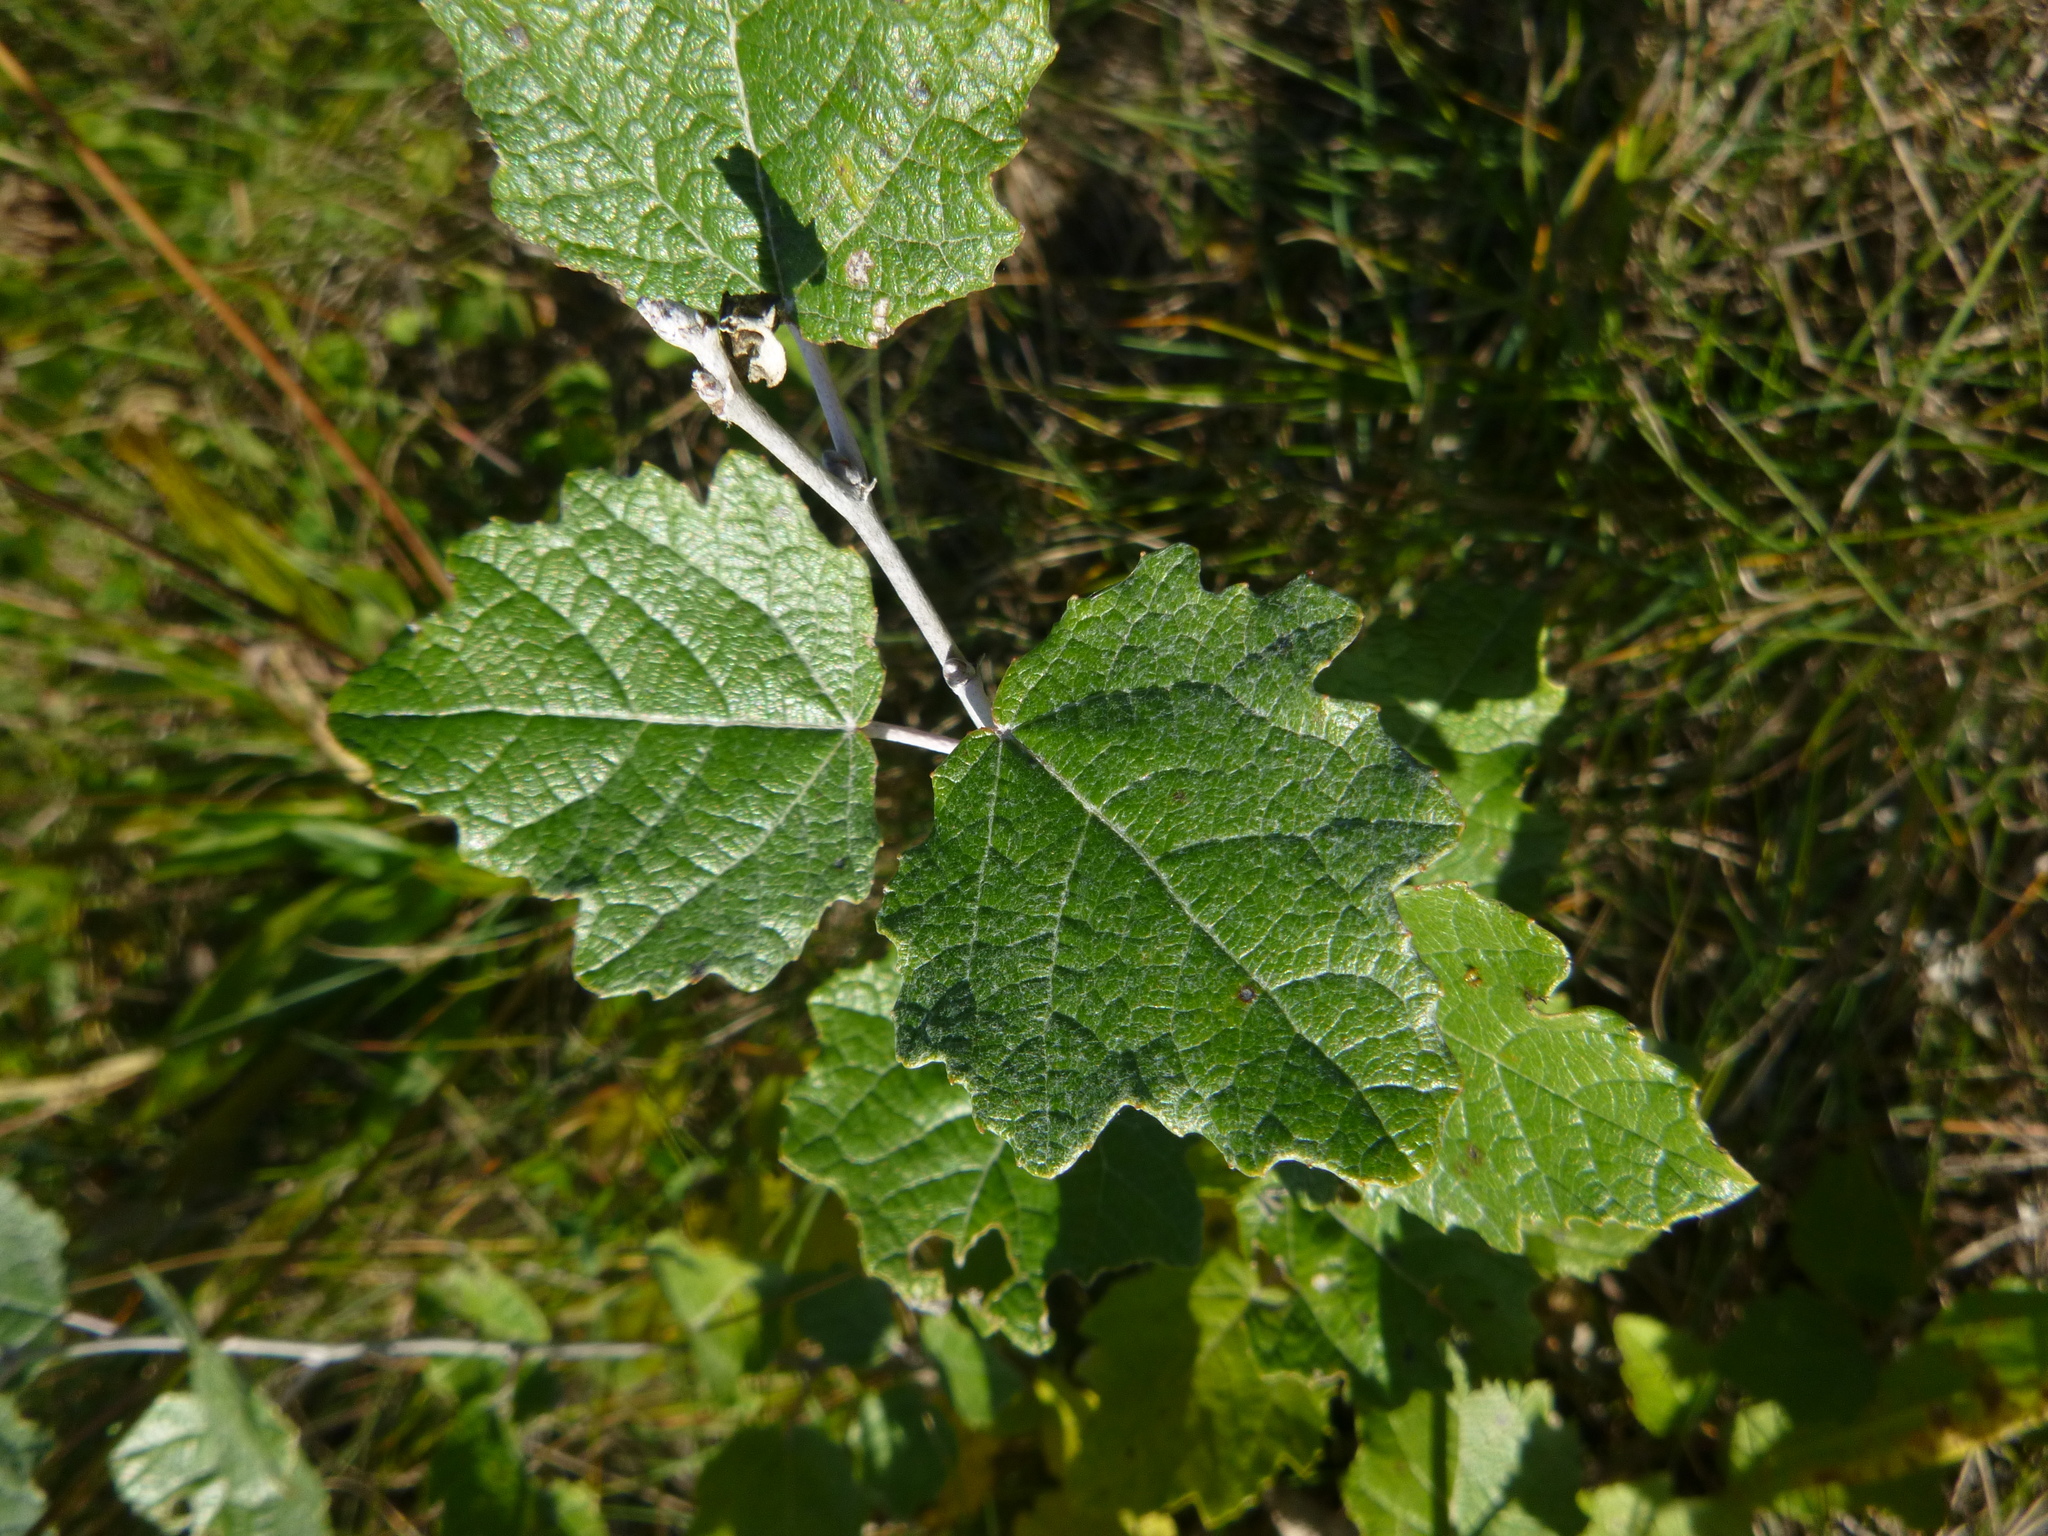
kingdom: Plantae
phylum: Tracheophyta
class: Magnoliopsida
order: Malpighiales
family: Salicaceae
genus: Populus
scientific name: Populus alba
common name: White poplar
